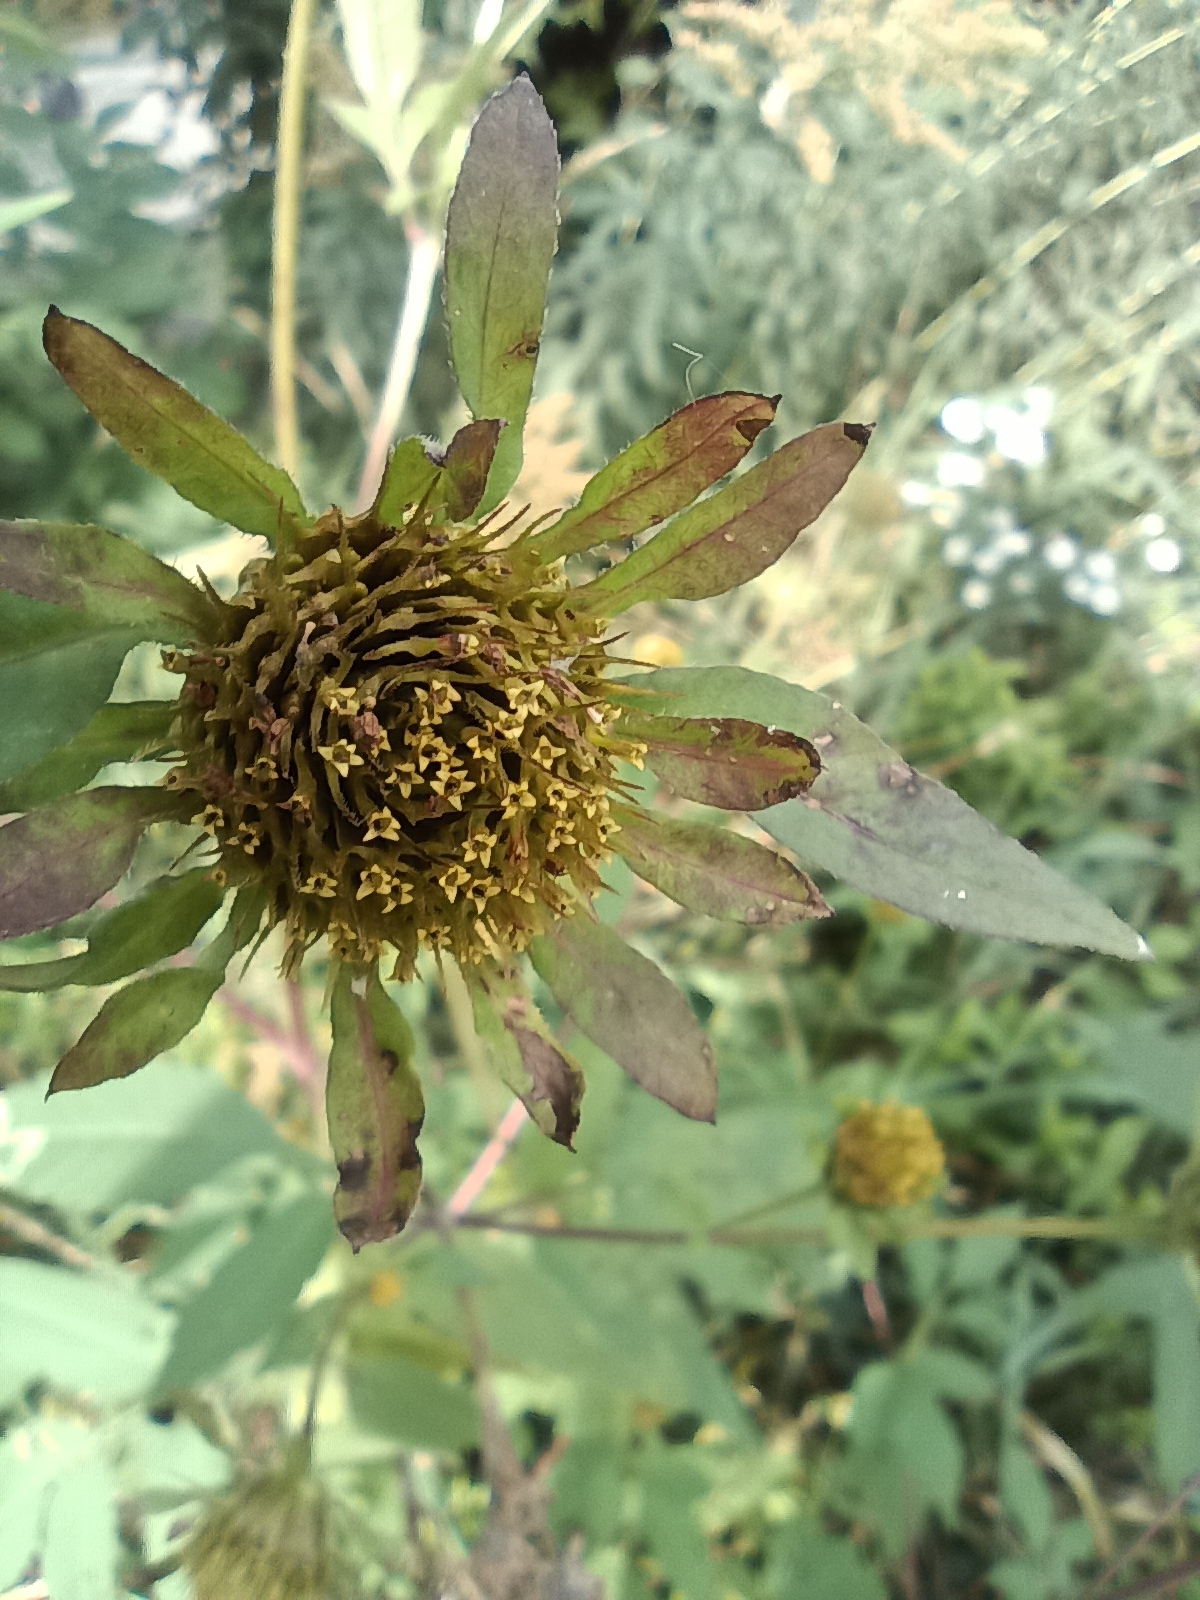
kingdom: Plantae
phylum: Tracheophyta
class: Magnoliopsida
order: Asterales
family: Asteraceae
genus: Bidens
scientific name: Bidens vulgata
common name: Tall beggarticks
